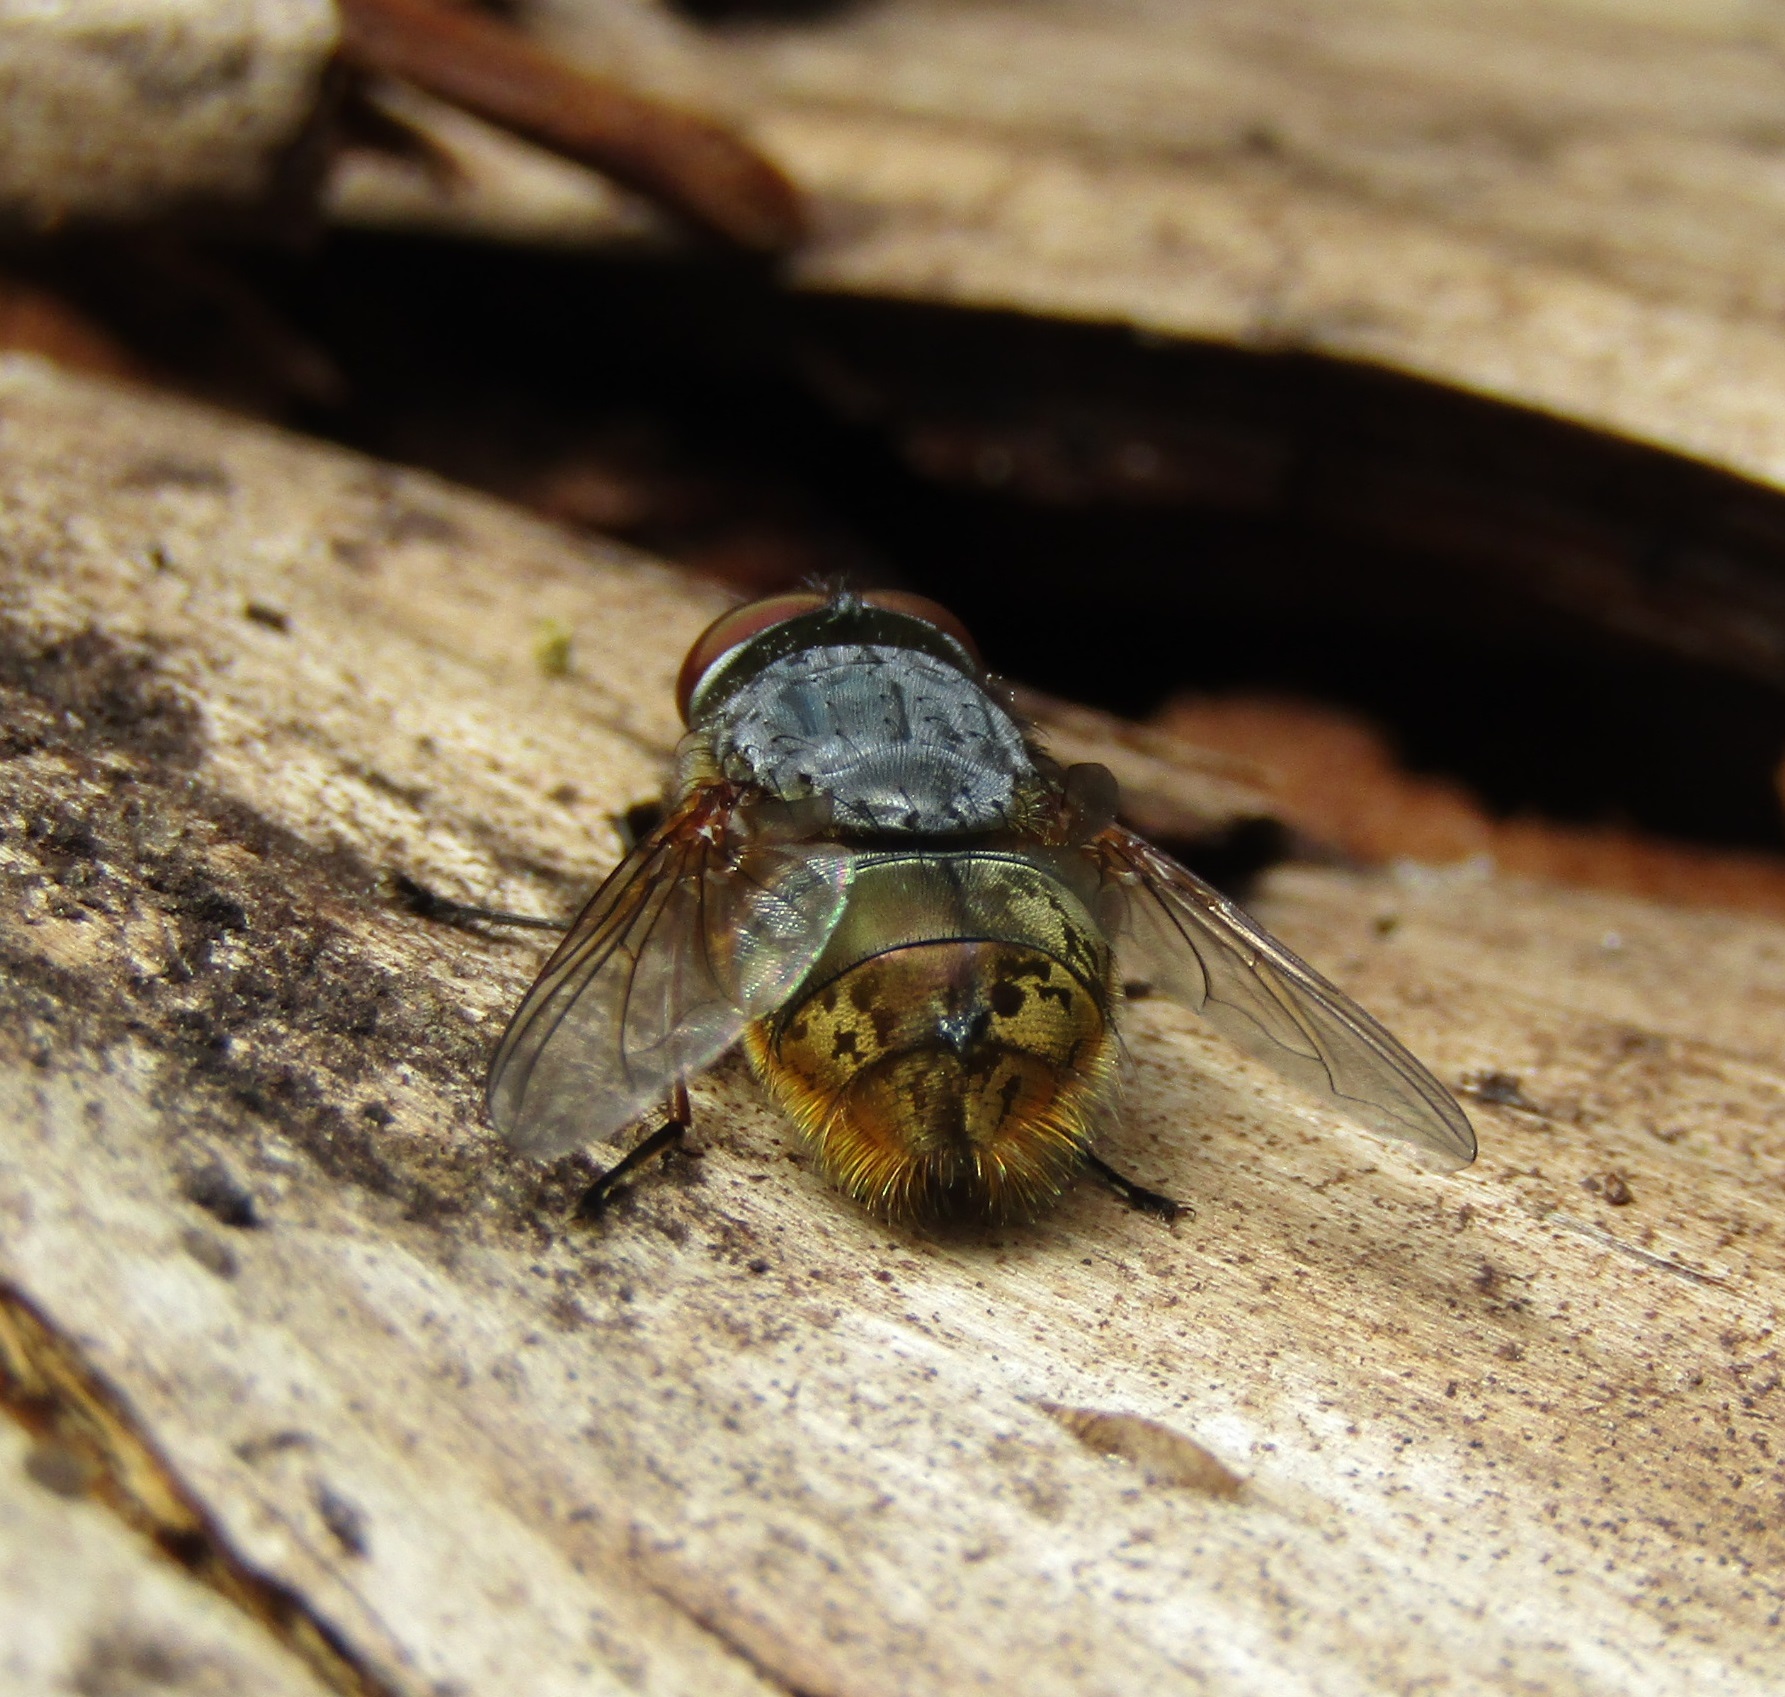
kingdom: Animalia
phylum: Arthropoda
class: Insecta
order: Diptera
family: Calliphoridae
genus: Calliphora
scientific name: Calliphora stygia
